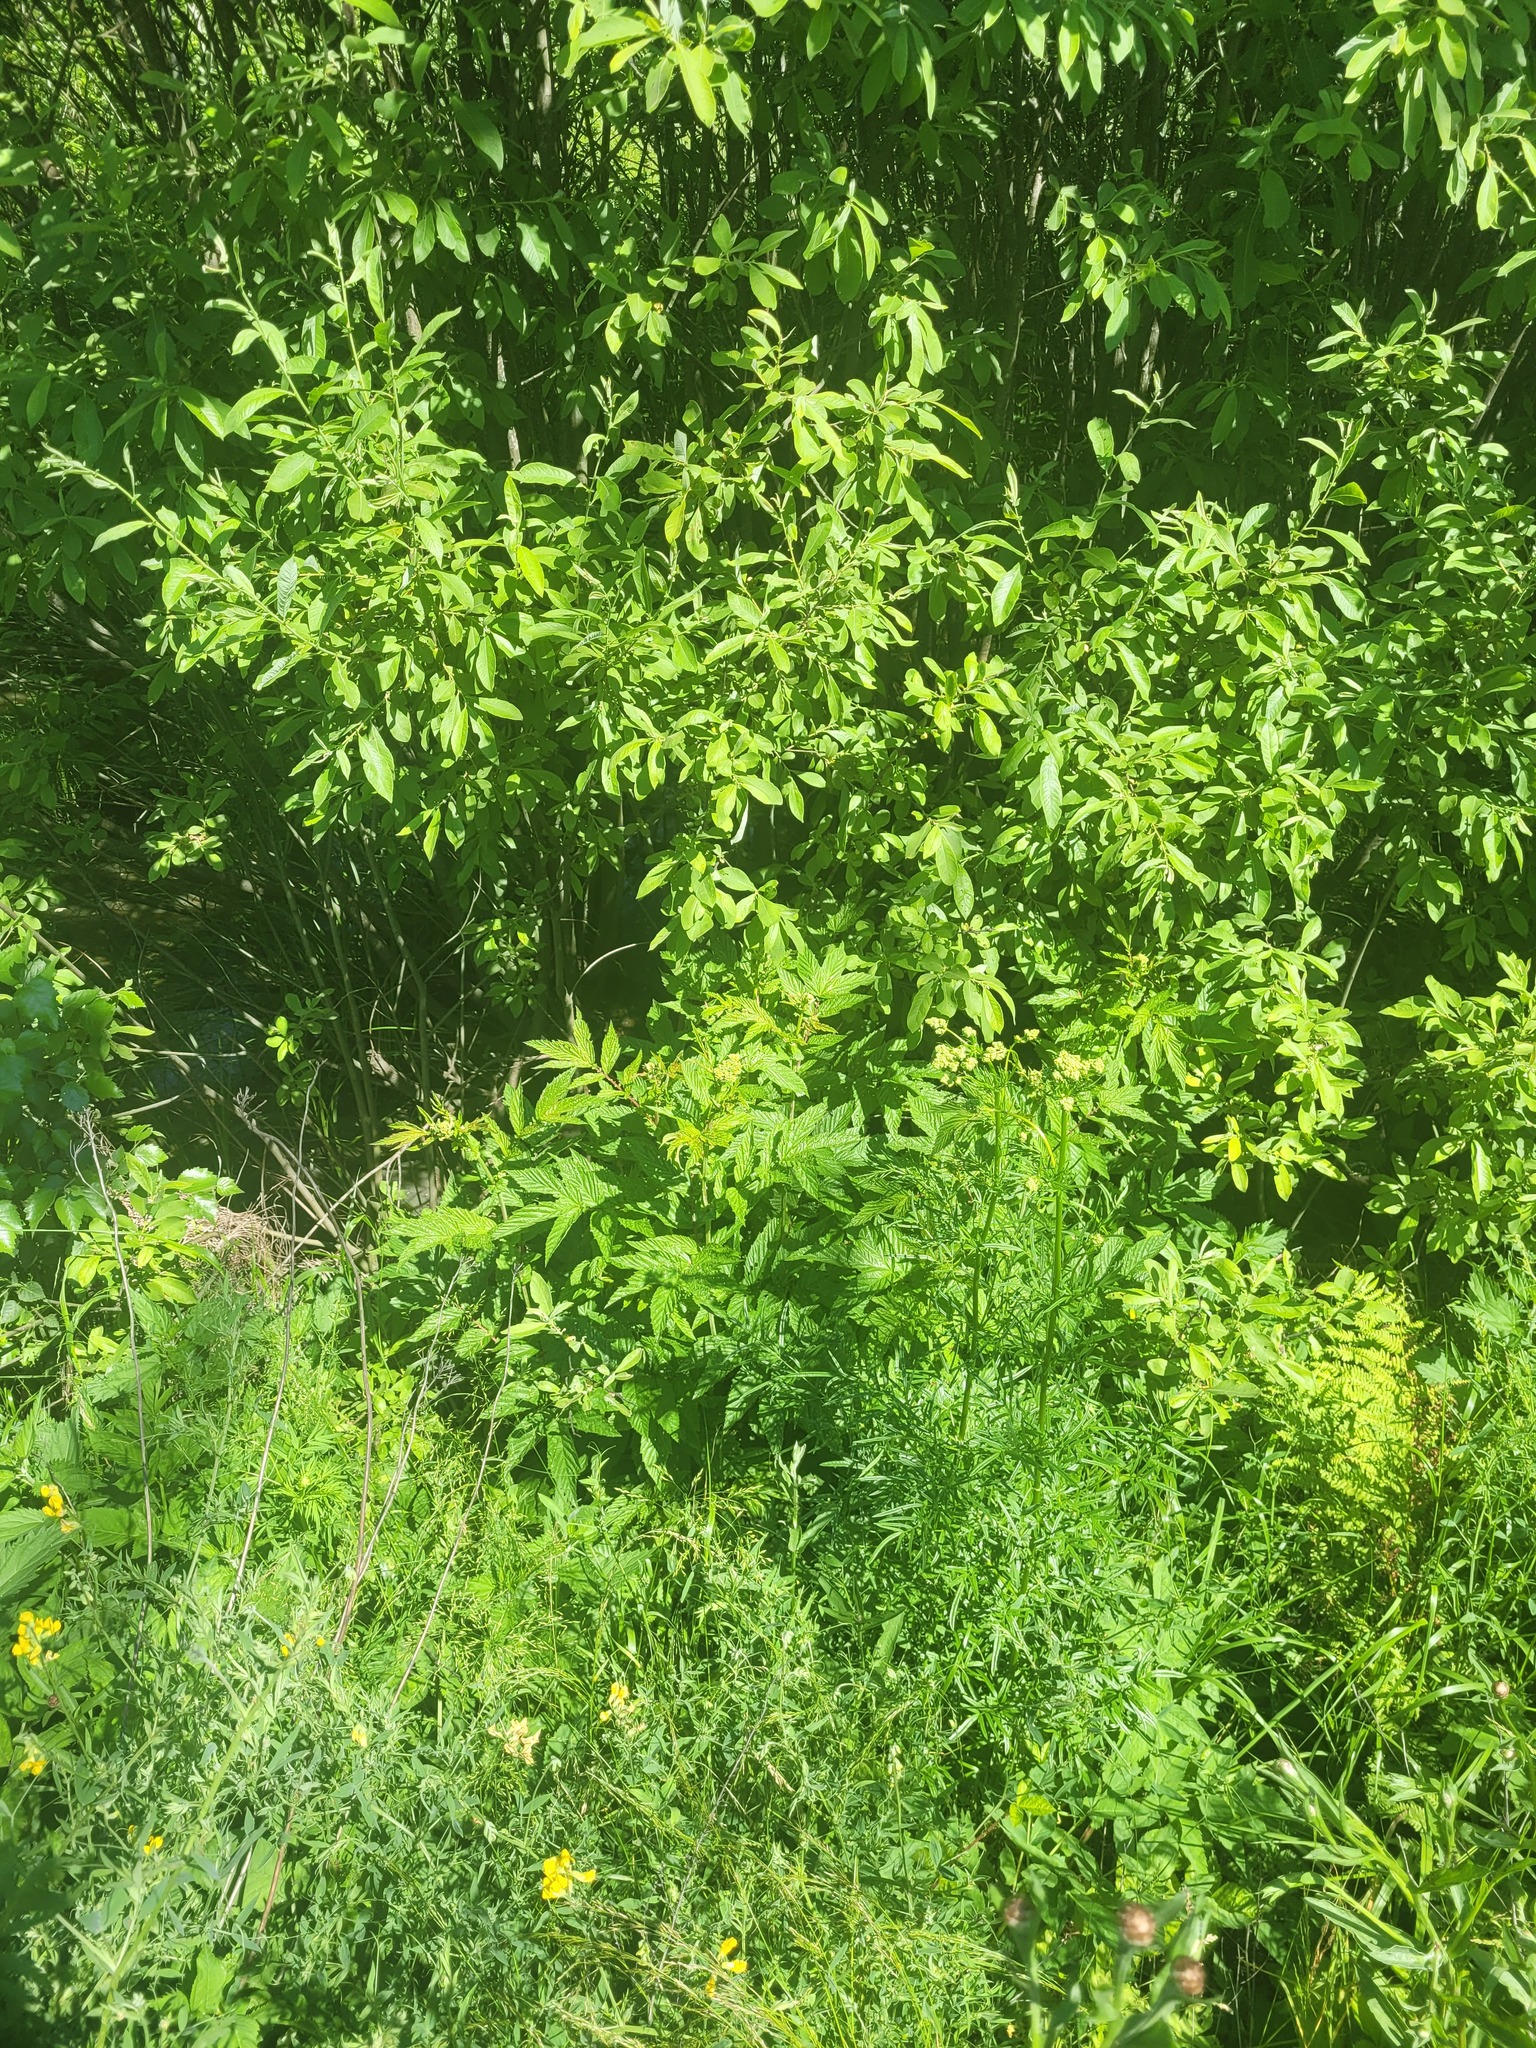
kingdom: Plantae
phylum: Tracheophyta
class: Magnoliopsida
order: Rosales
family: Rosaceae
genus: Filipendula
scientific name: Filipendula ulmaria
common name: Meadowsweet
